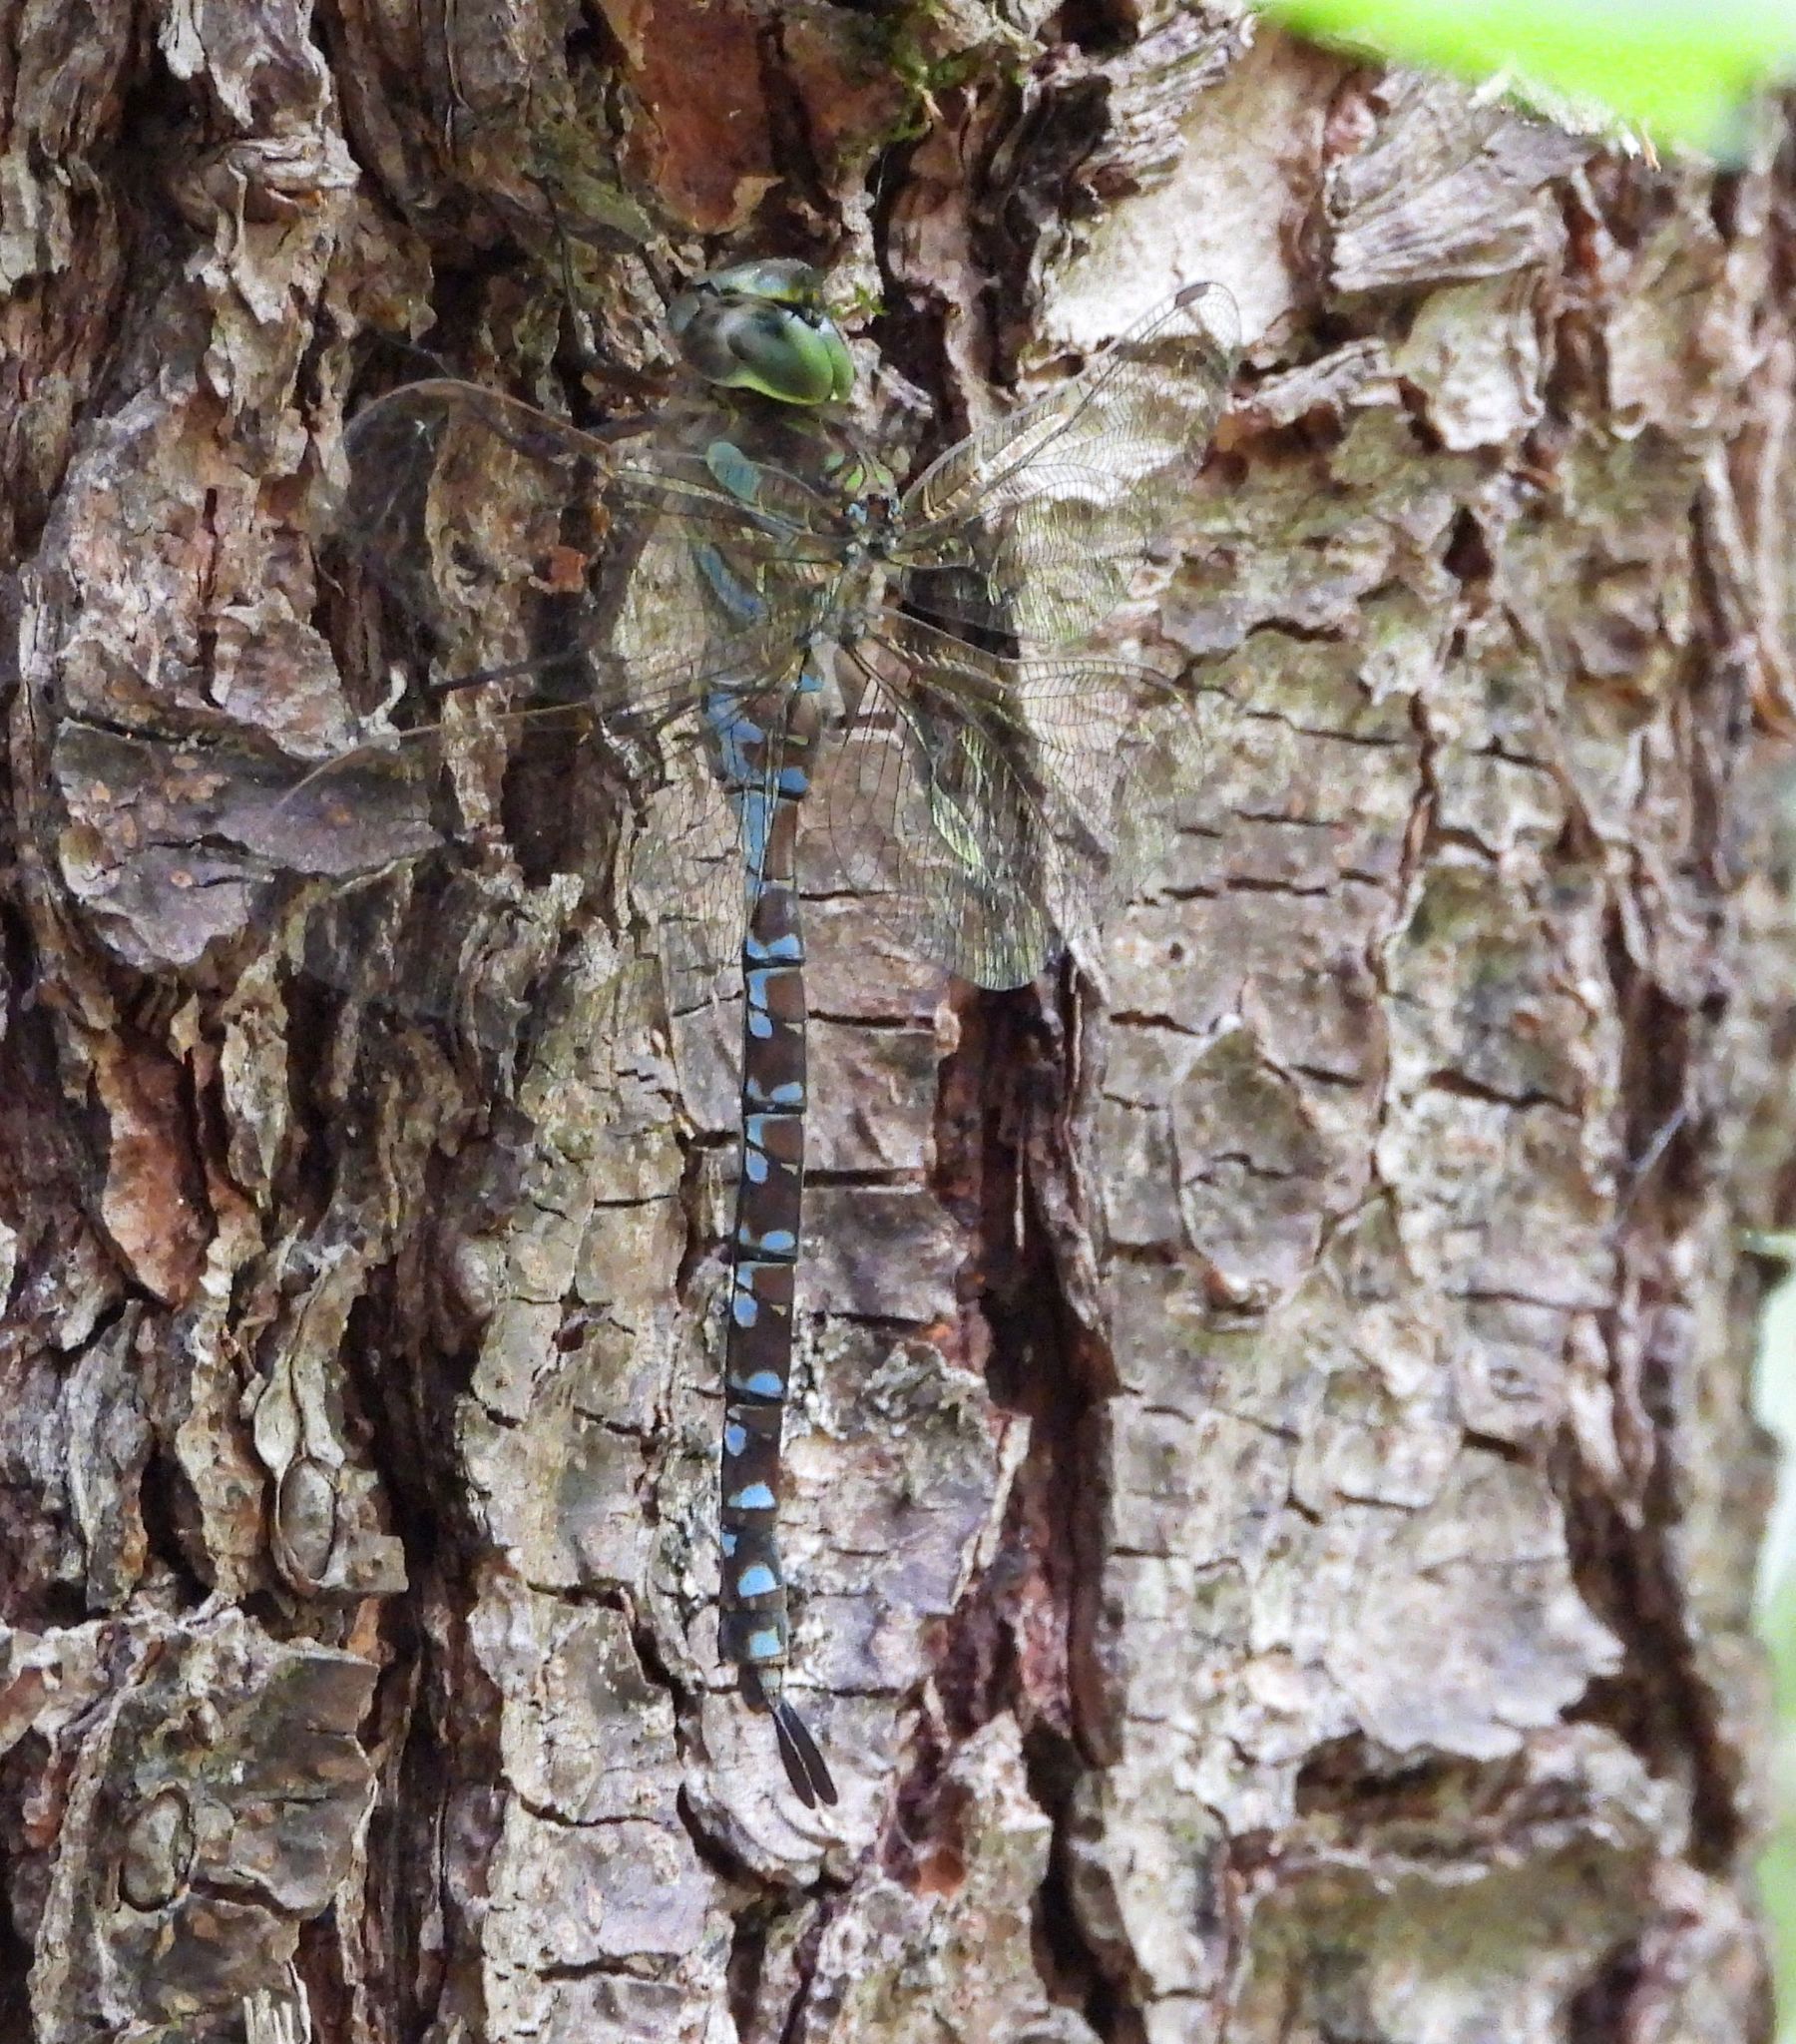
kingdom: Animalia
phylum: Arthropoda
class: Insecta
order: Odonata
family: Aeshnidae
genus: Aeshna
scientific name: Aeshna canadensis
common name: Canada darner
